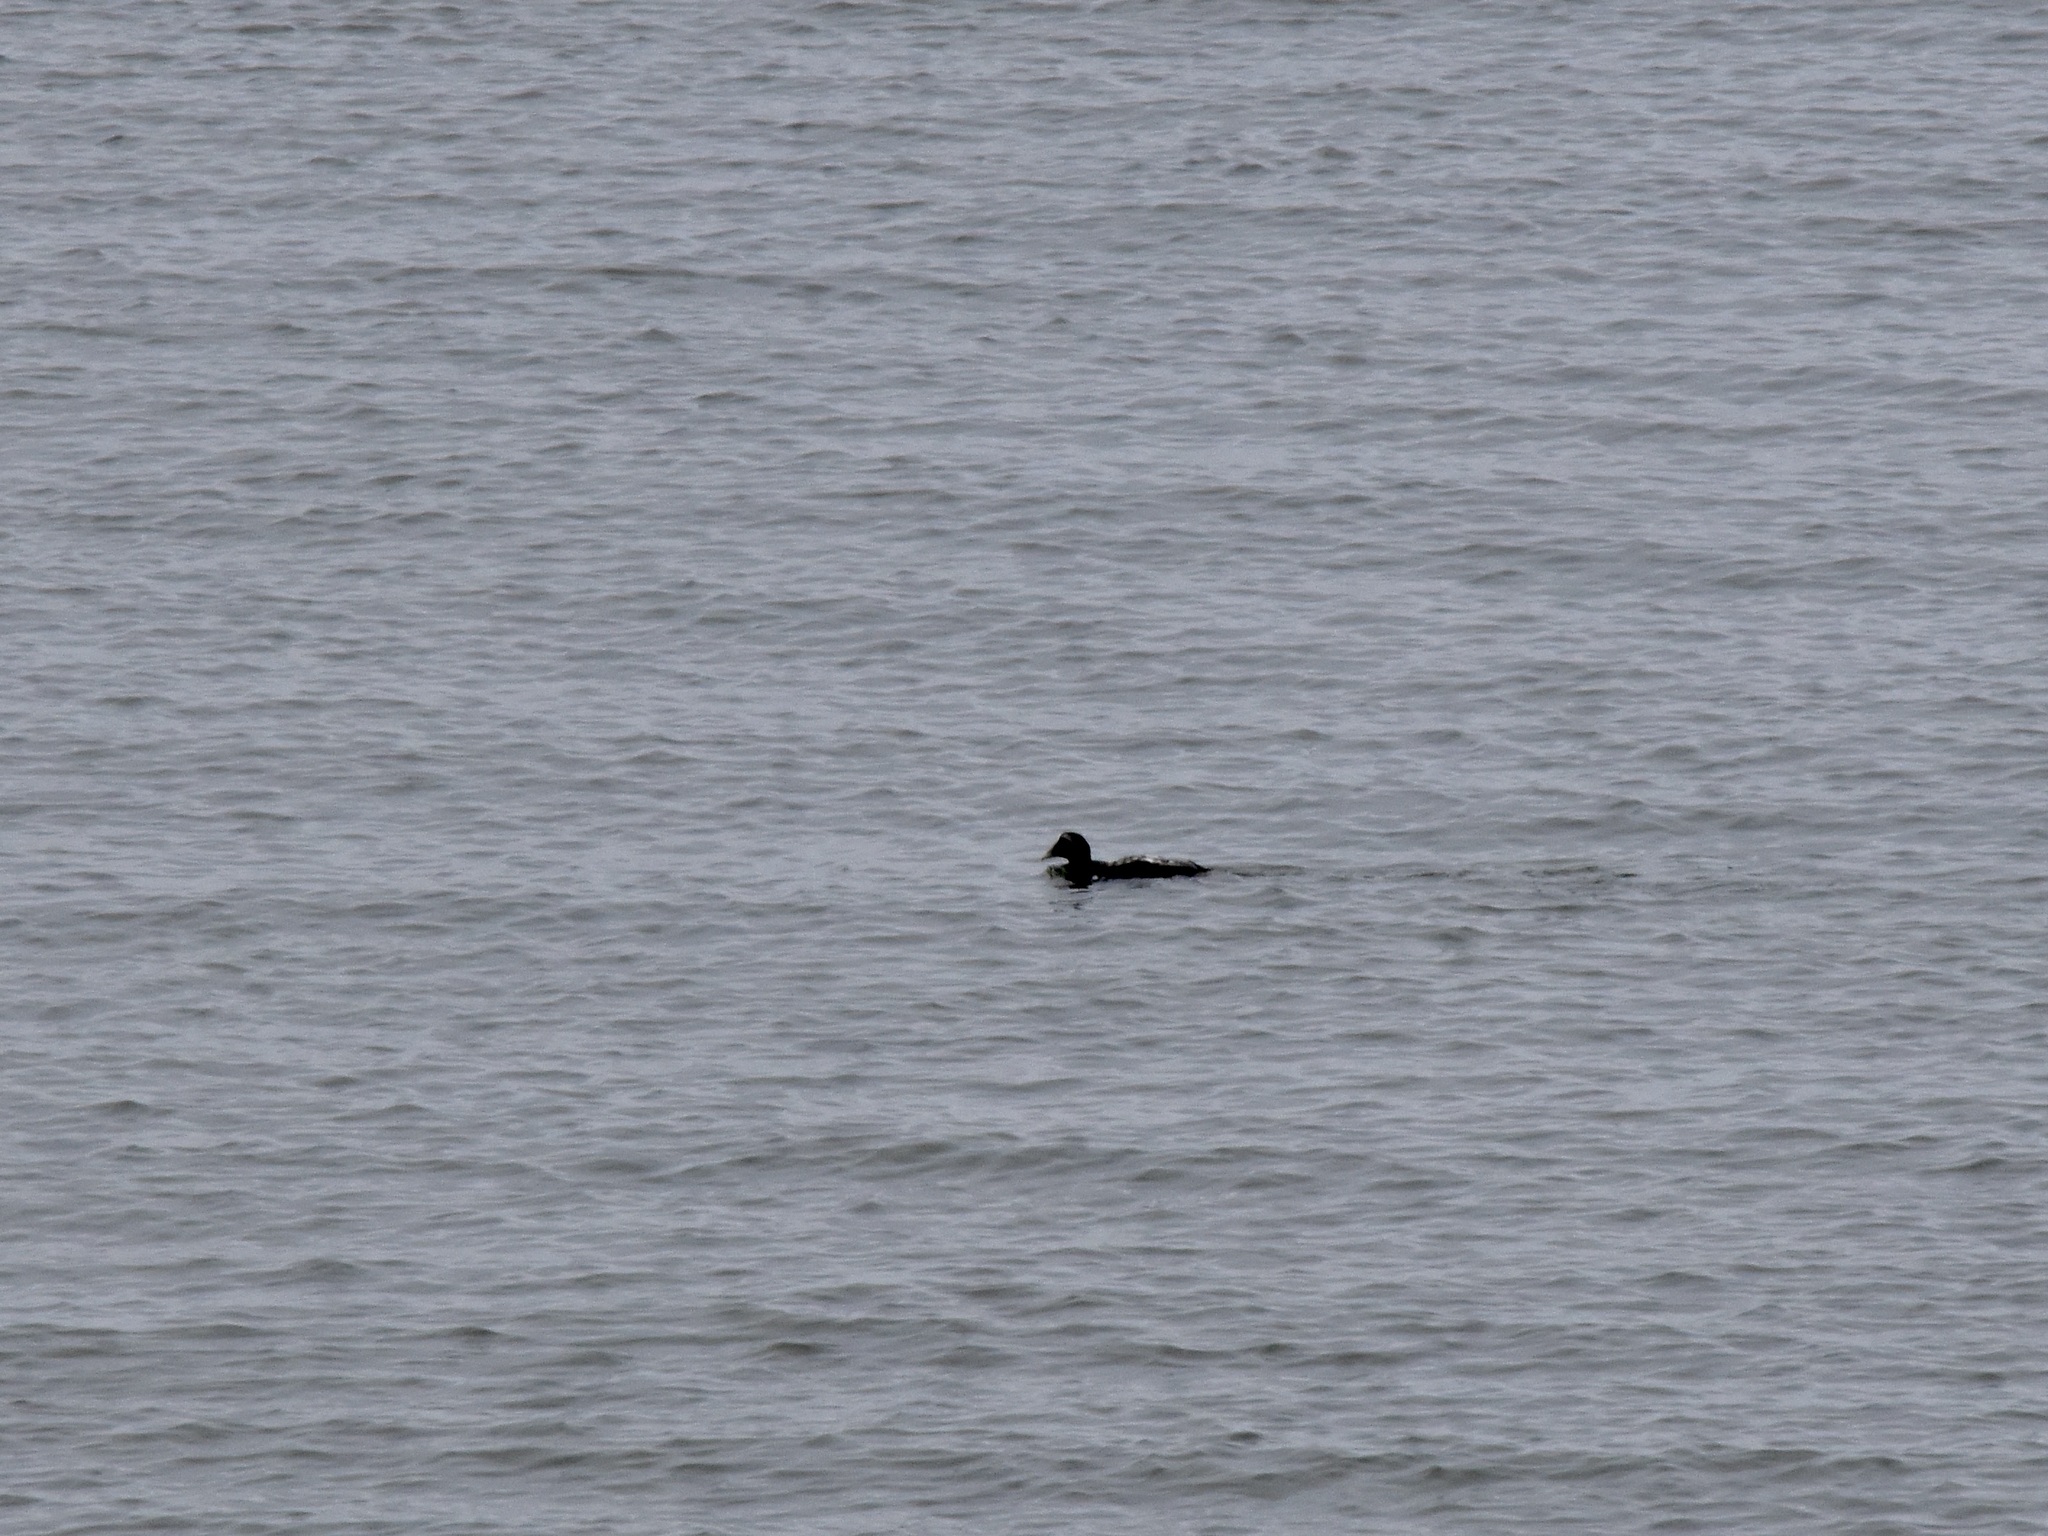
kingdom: Animalia
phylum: Chordata
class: Aves
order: Anseriformes
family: Anatidae
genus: Somateria
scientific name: Somateria mollissima
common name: Common eider
